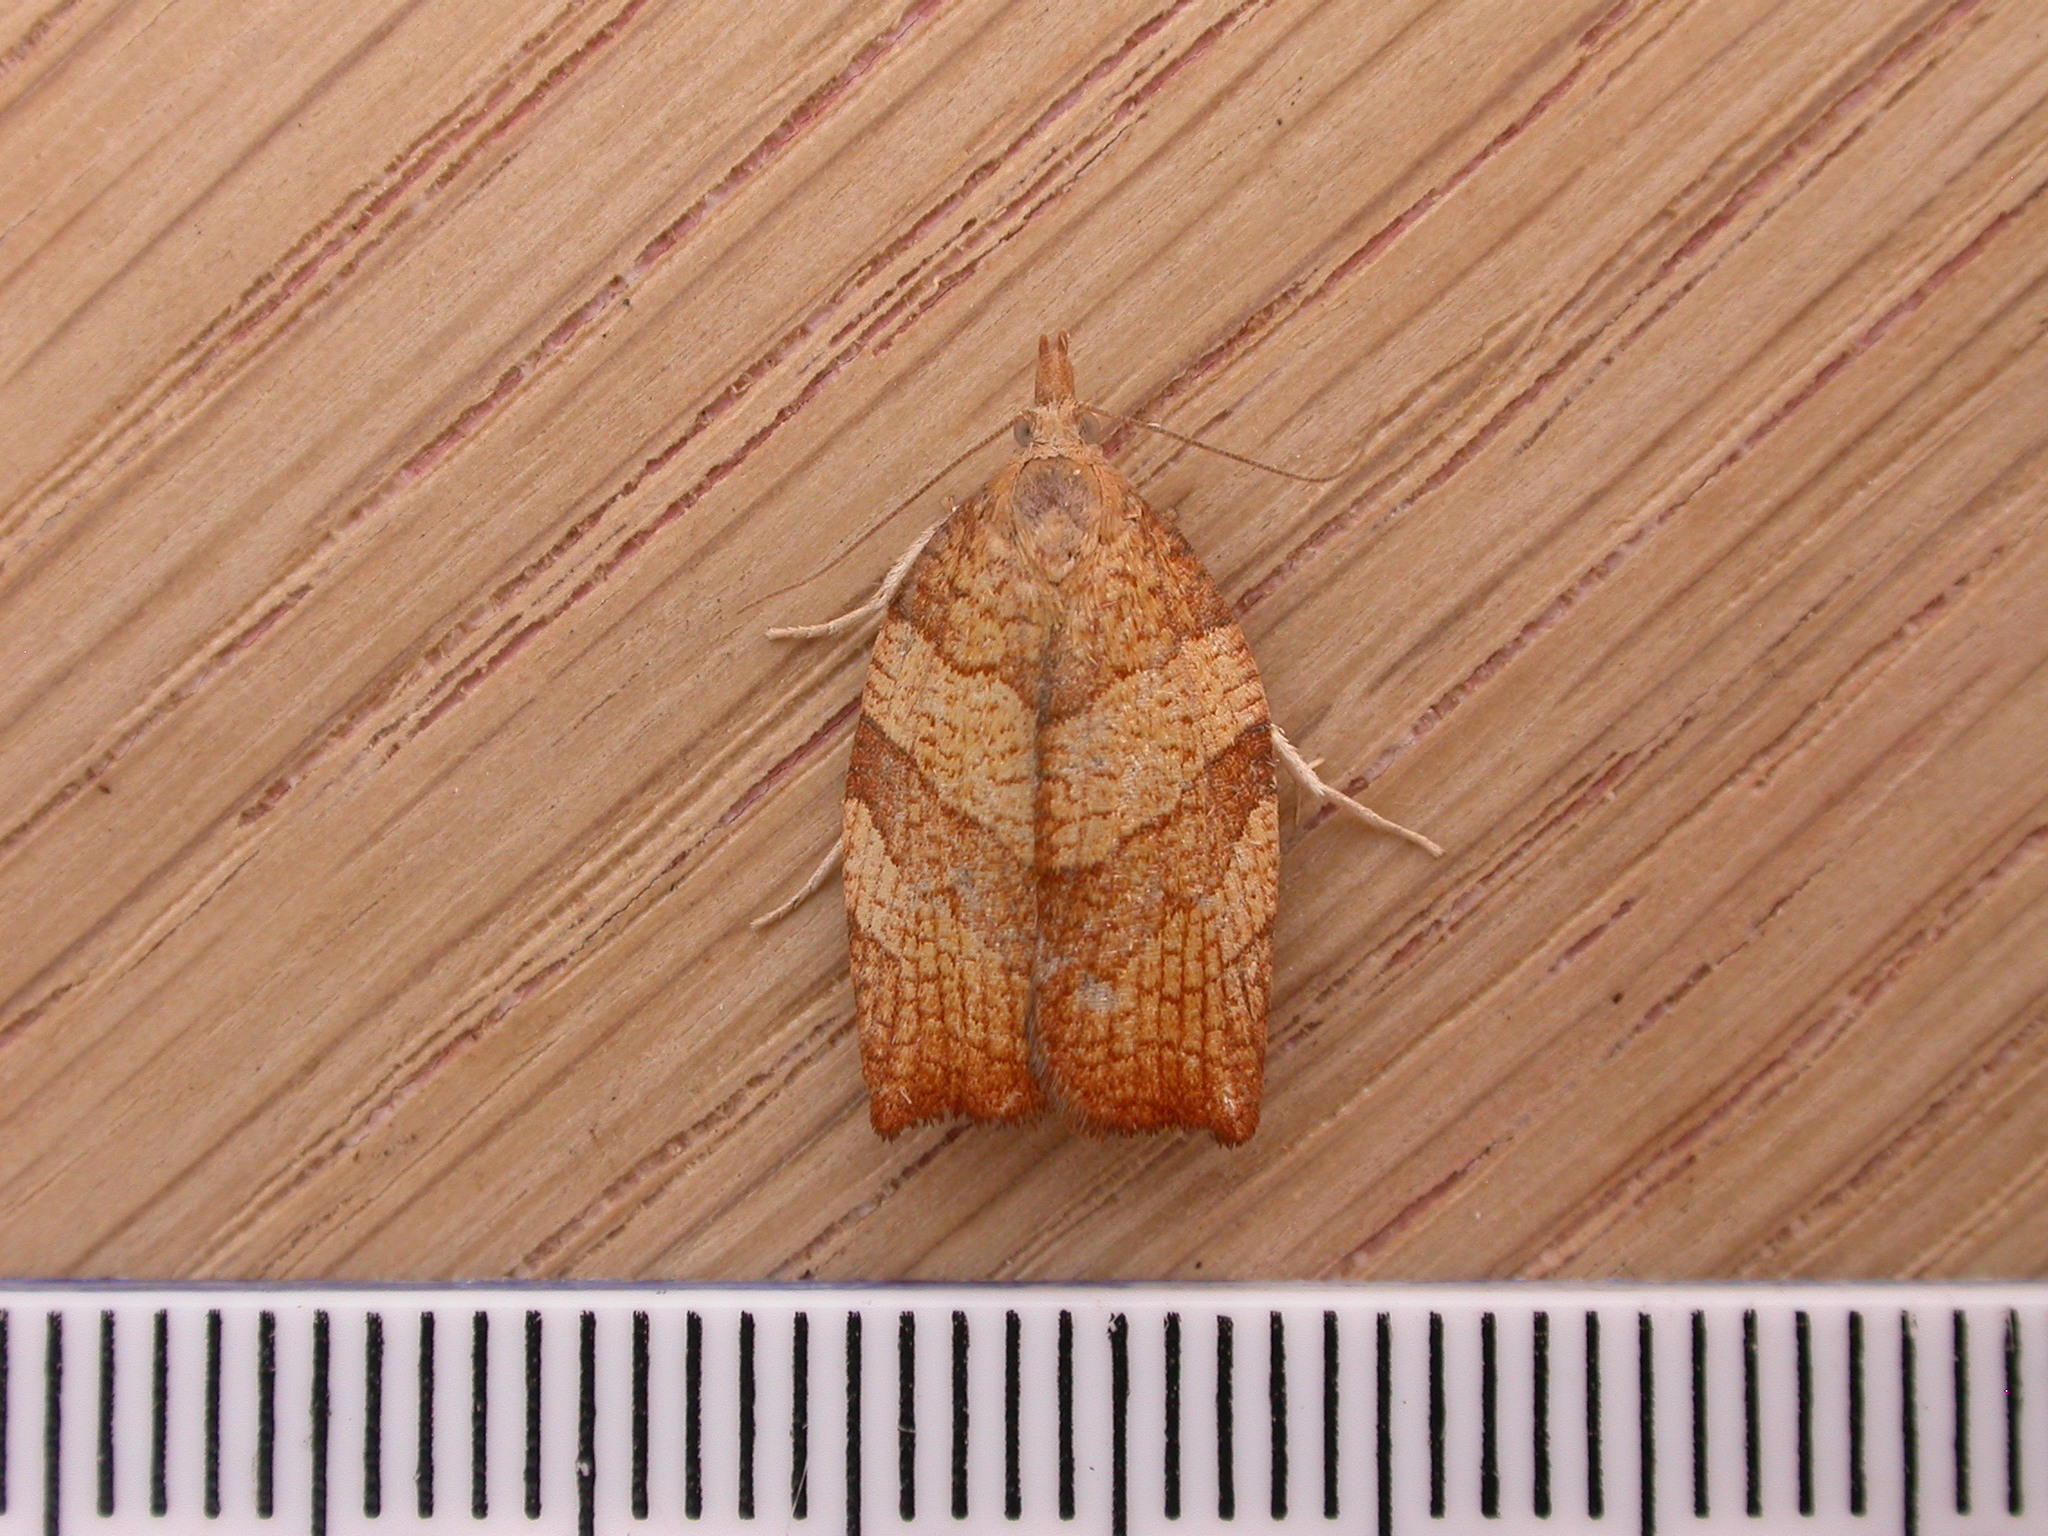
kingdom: Animalia
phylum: Arthropoda
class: Insecta
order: Lepidoptera
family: Tortricidae
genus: Pandemis
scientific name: Pandemis corylana
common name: Chequered fruit-tree tortrix
